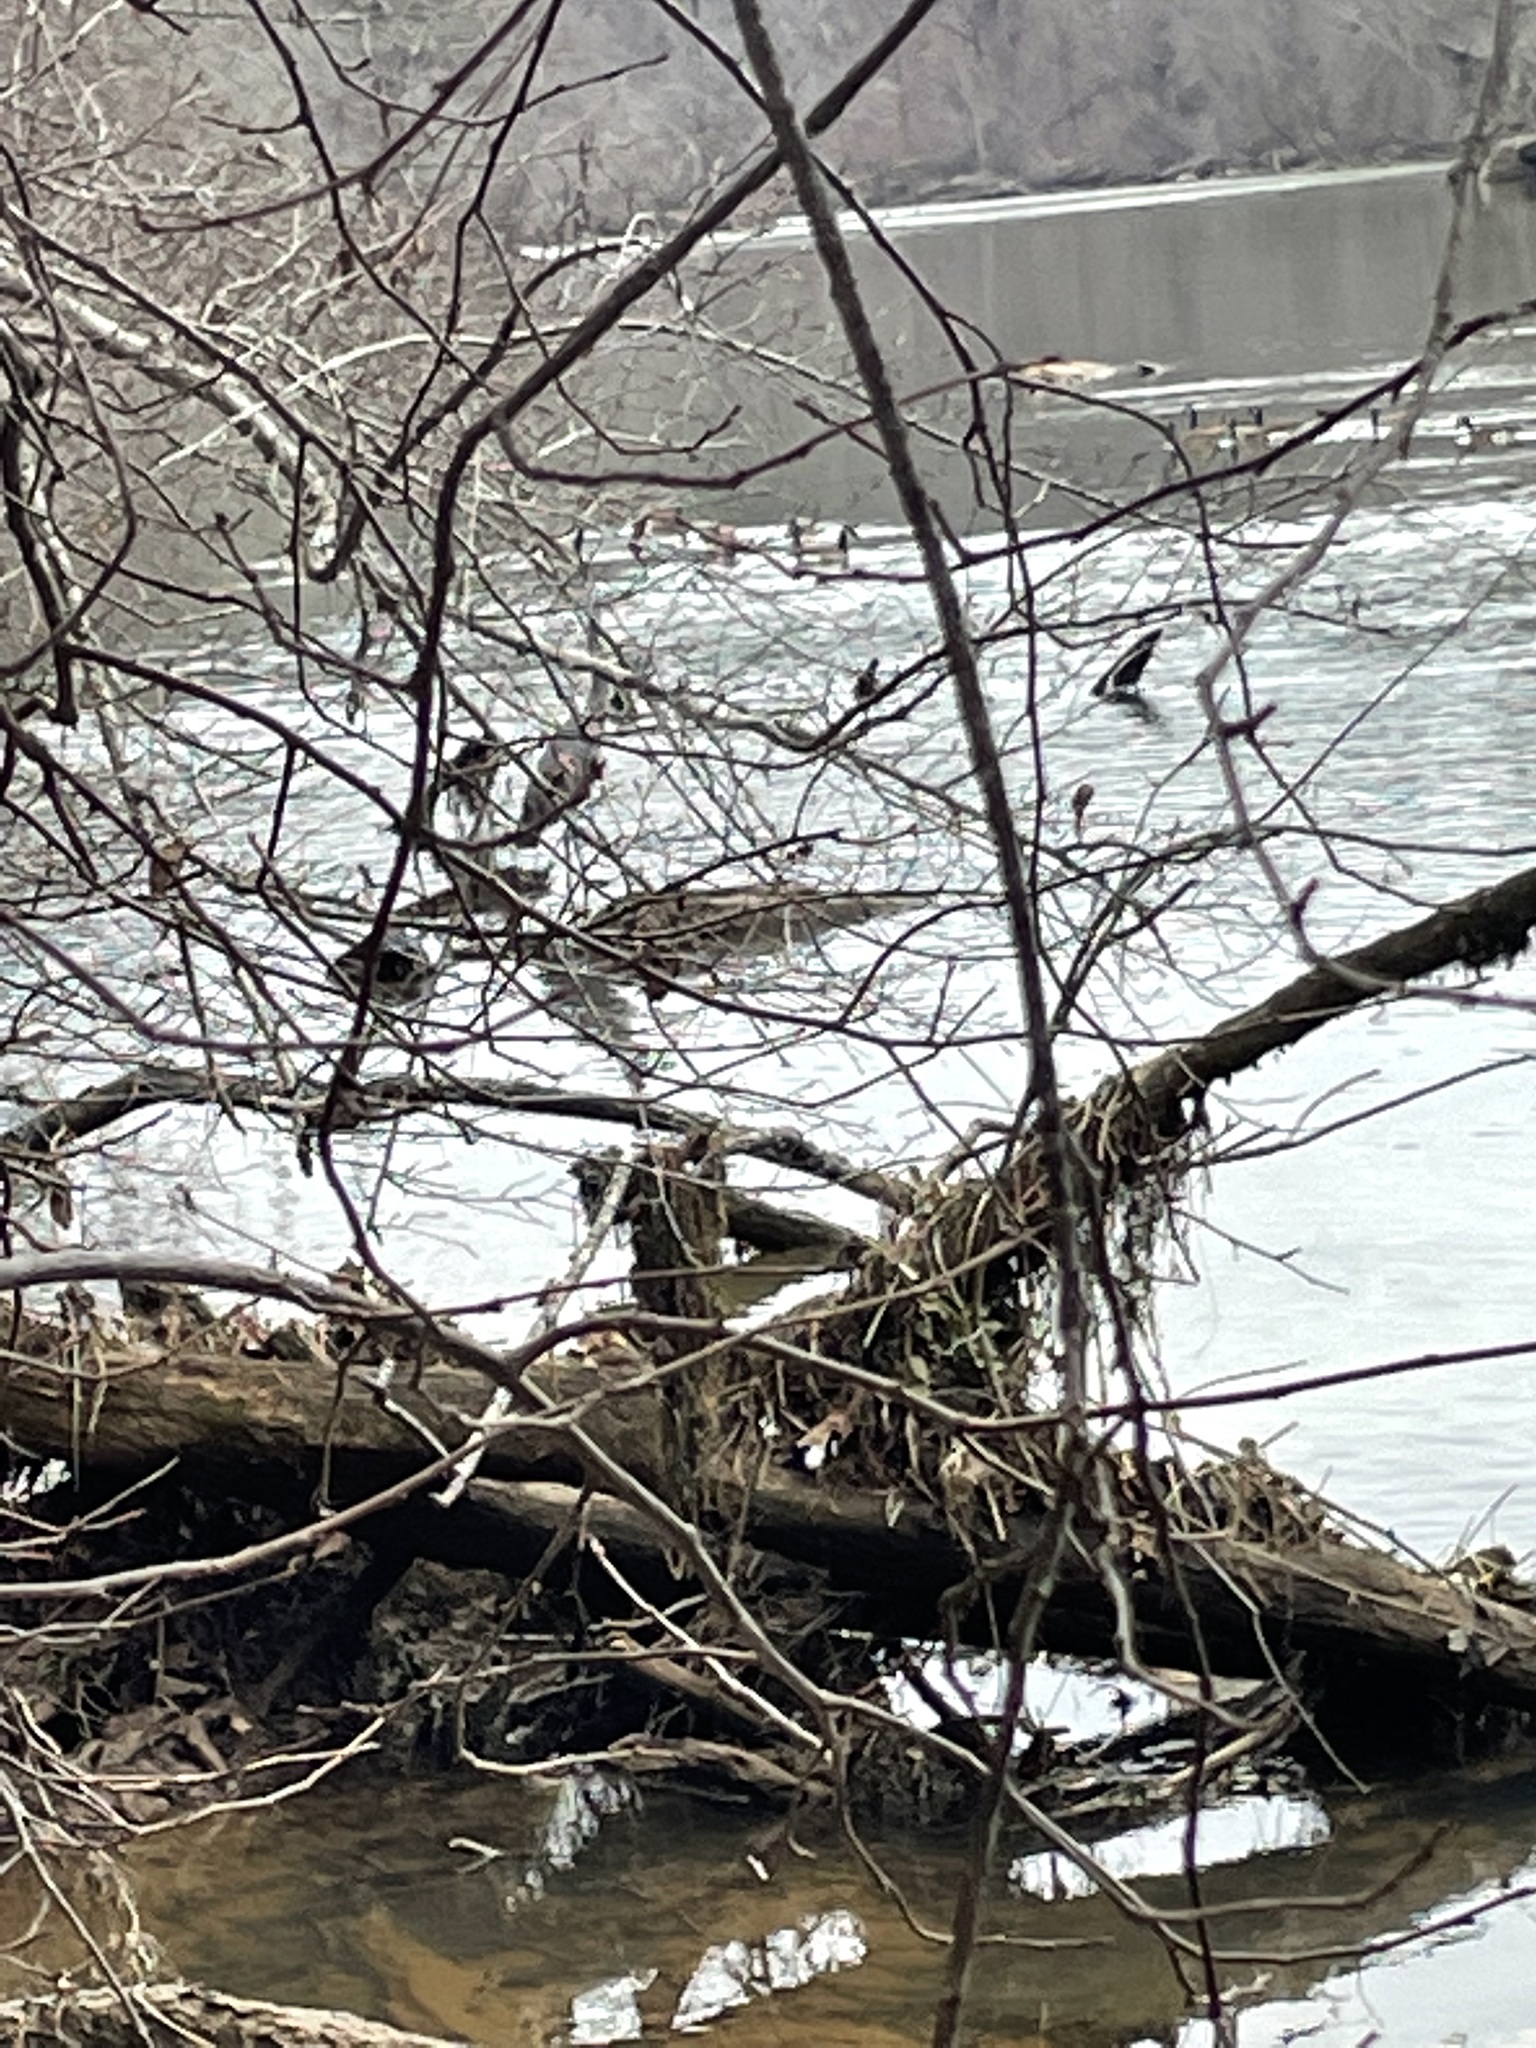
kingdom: Animalia
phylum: Chordata
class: Aves
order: Pelecaniformes
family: Ardeidae
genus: Ardea
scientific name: Ardea herodias
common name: Great blue heron
